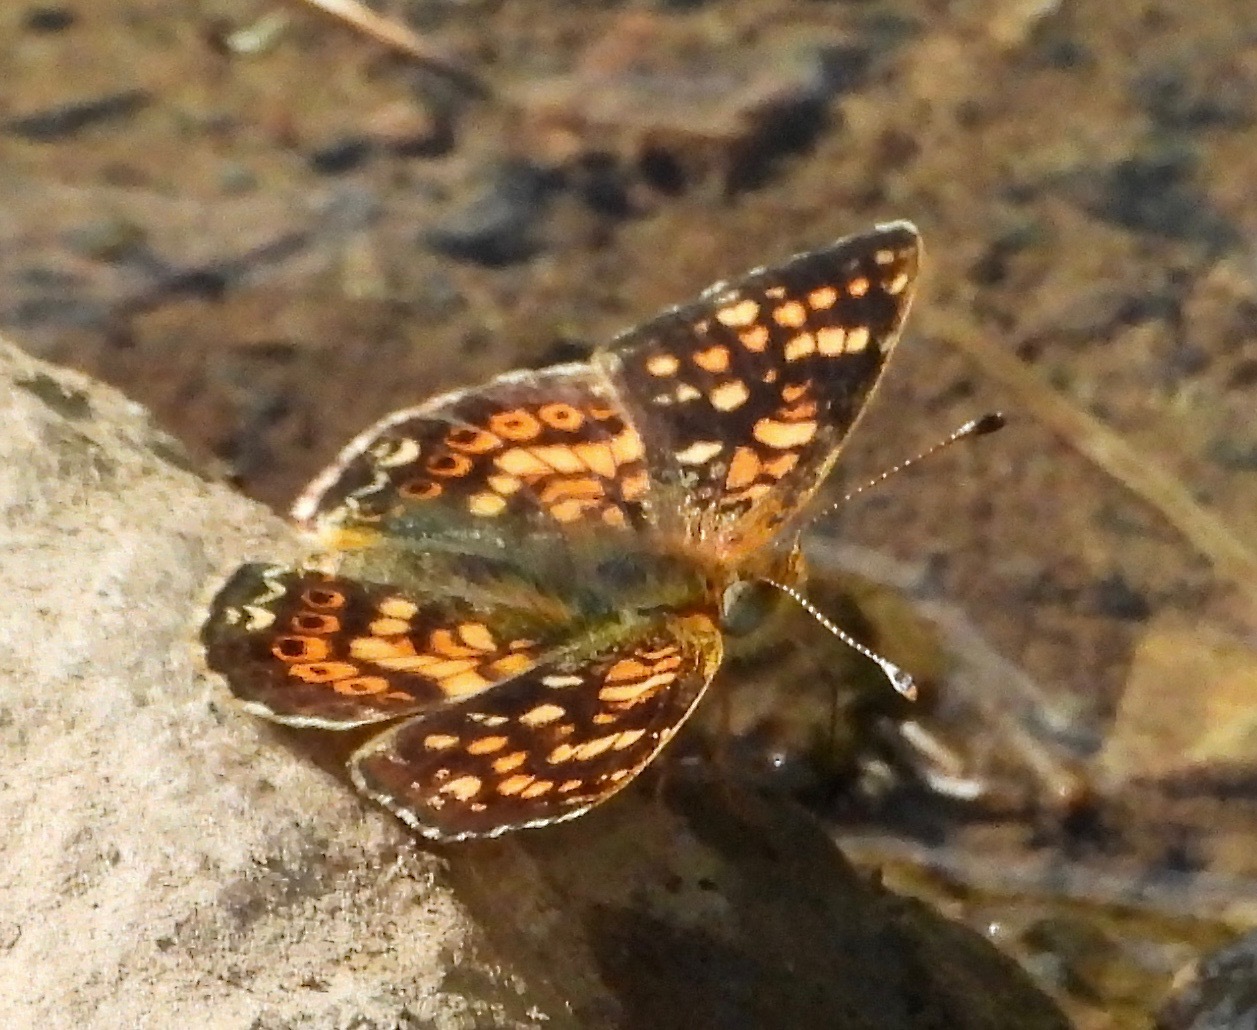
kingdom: Animalia
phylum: Arthropoda
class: Insecta
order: Lepidoptera
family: Nymphalidae
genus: Phyciodes
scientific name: Phyciodes tharos
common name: Pearl crescent
